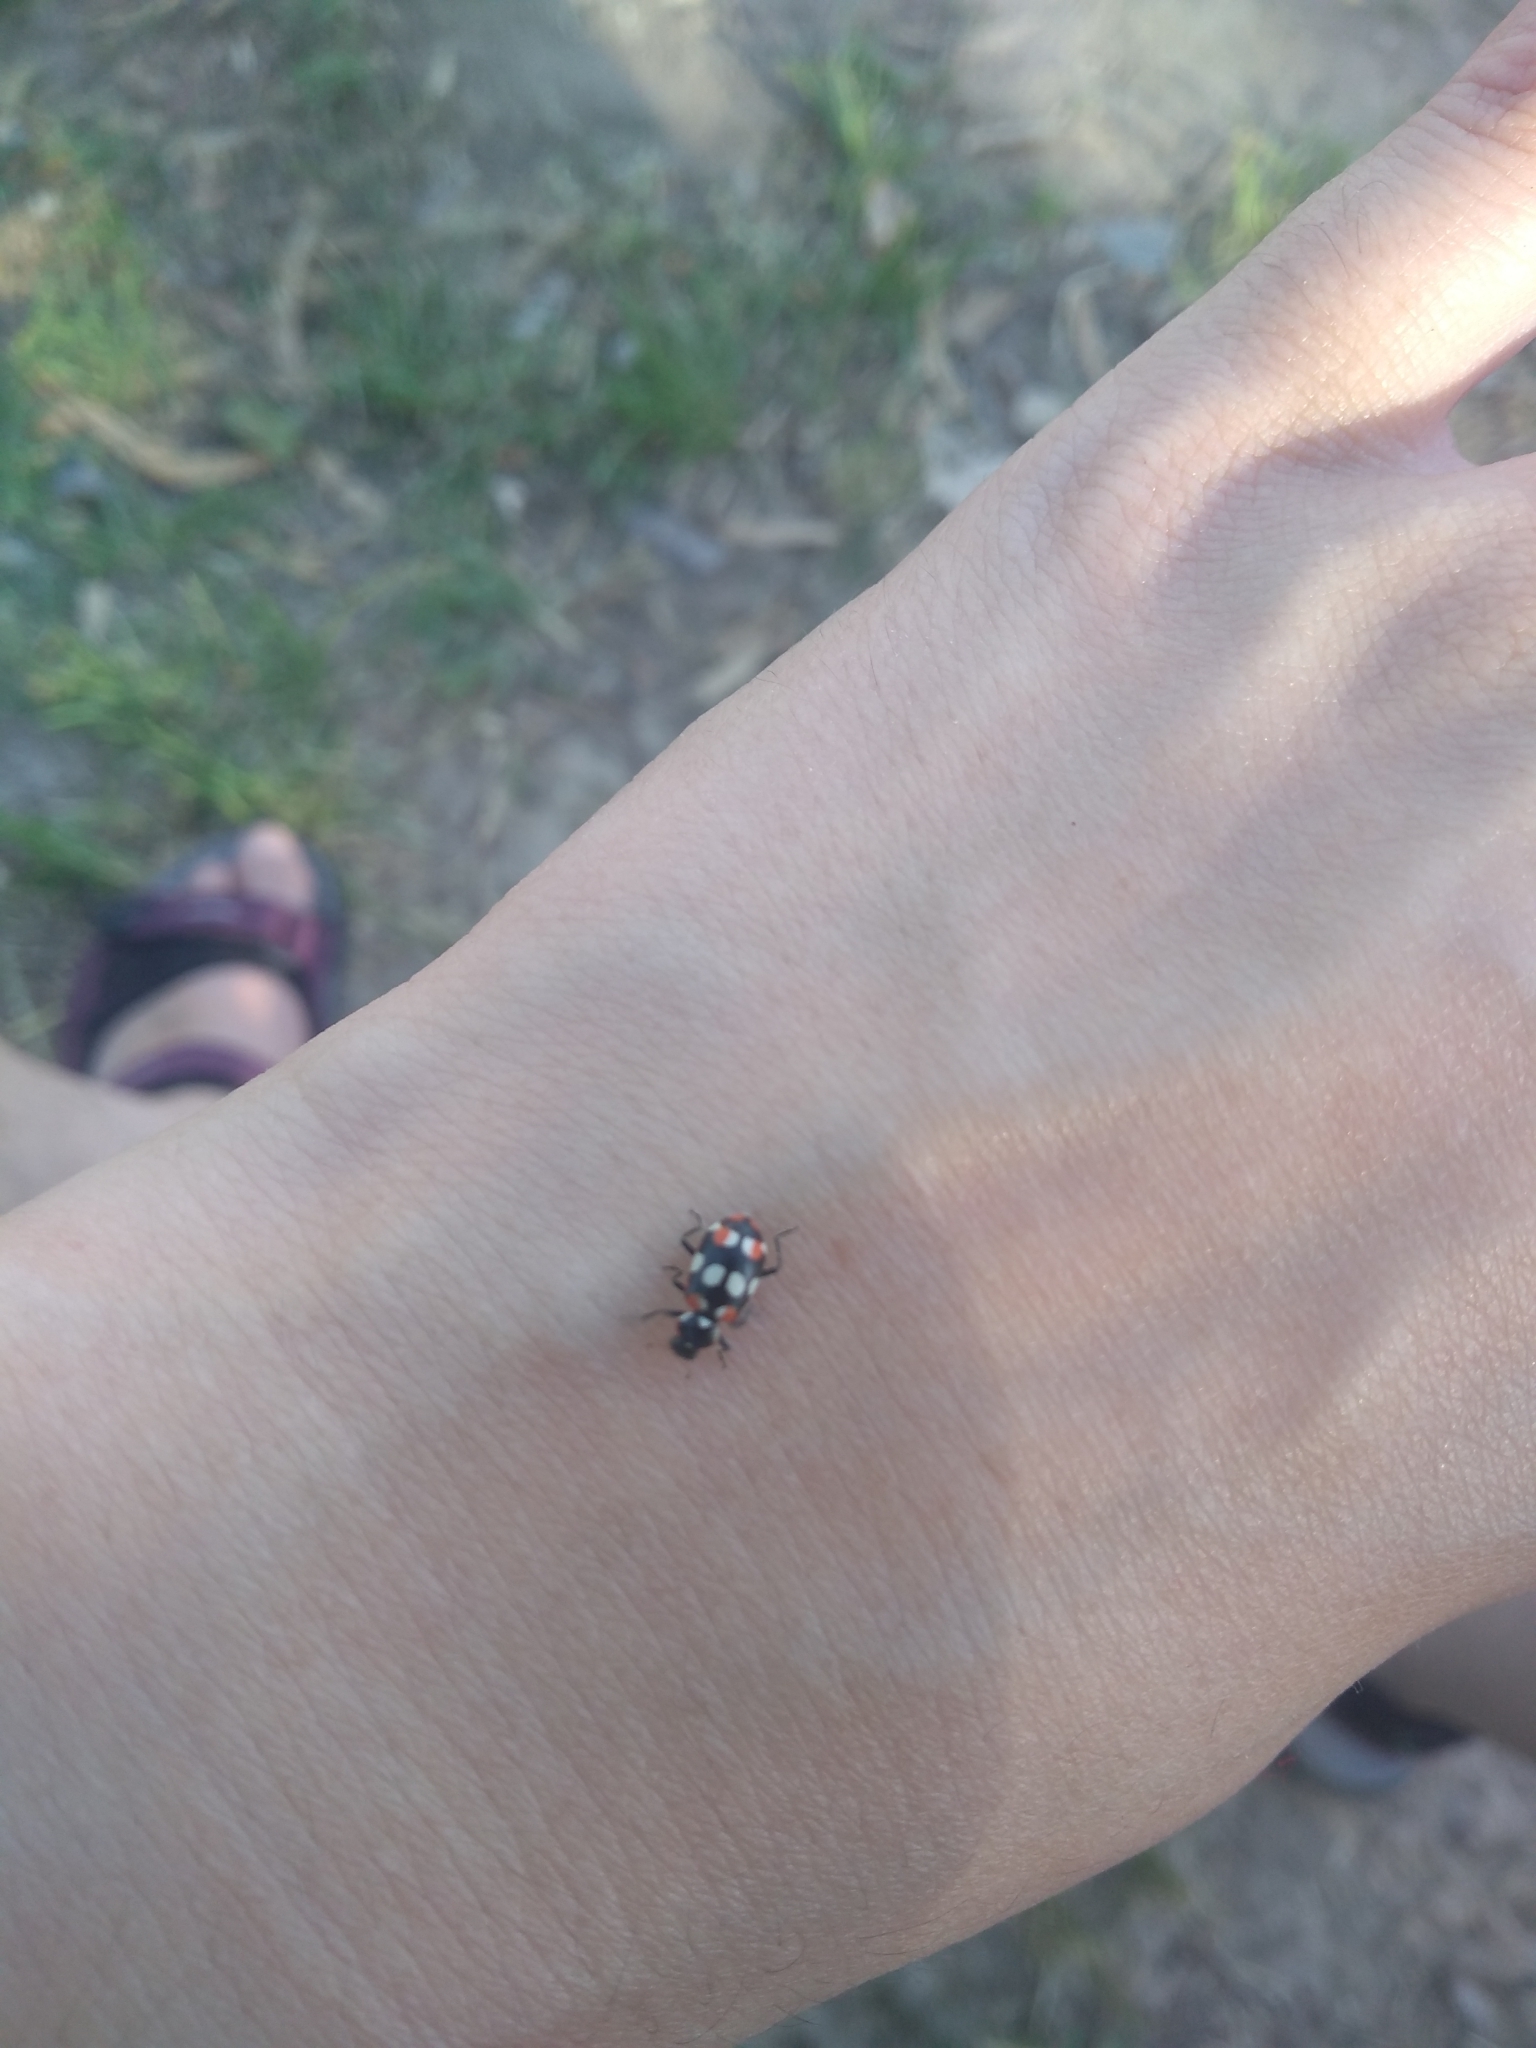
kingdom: Animalia
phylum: Arthropoda
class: Insecta
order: Coleoptera
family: Coccinellidae
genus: Eriopis
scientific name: Eriopis connexa
